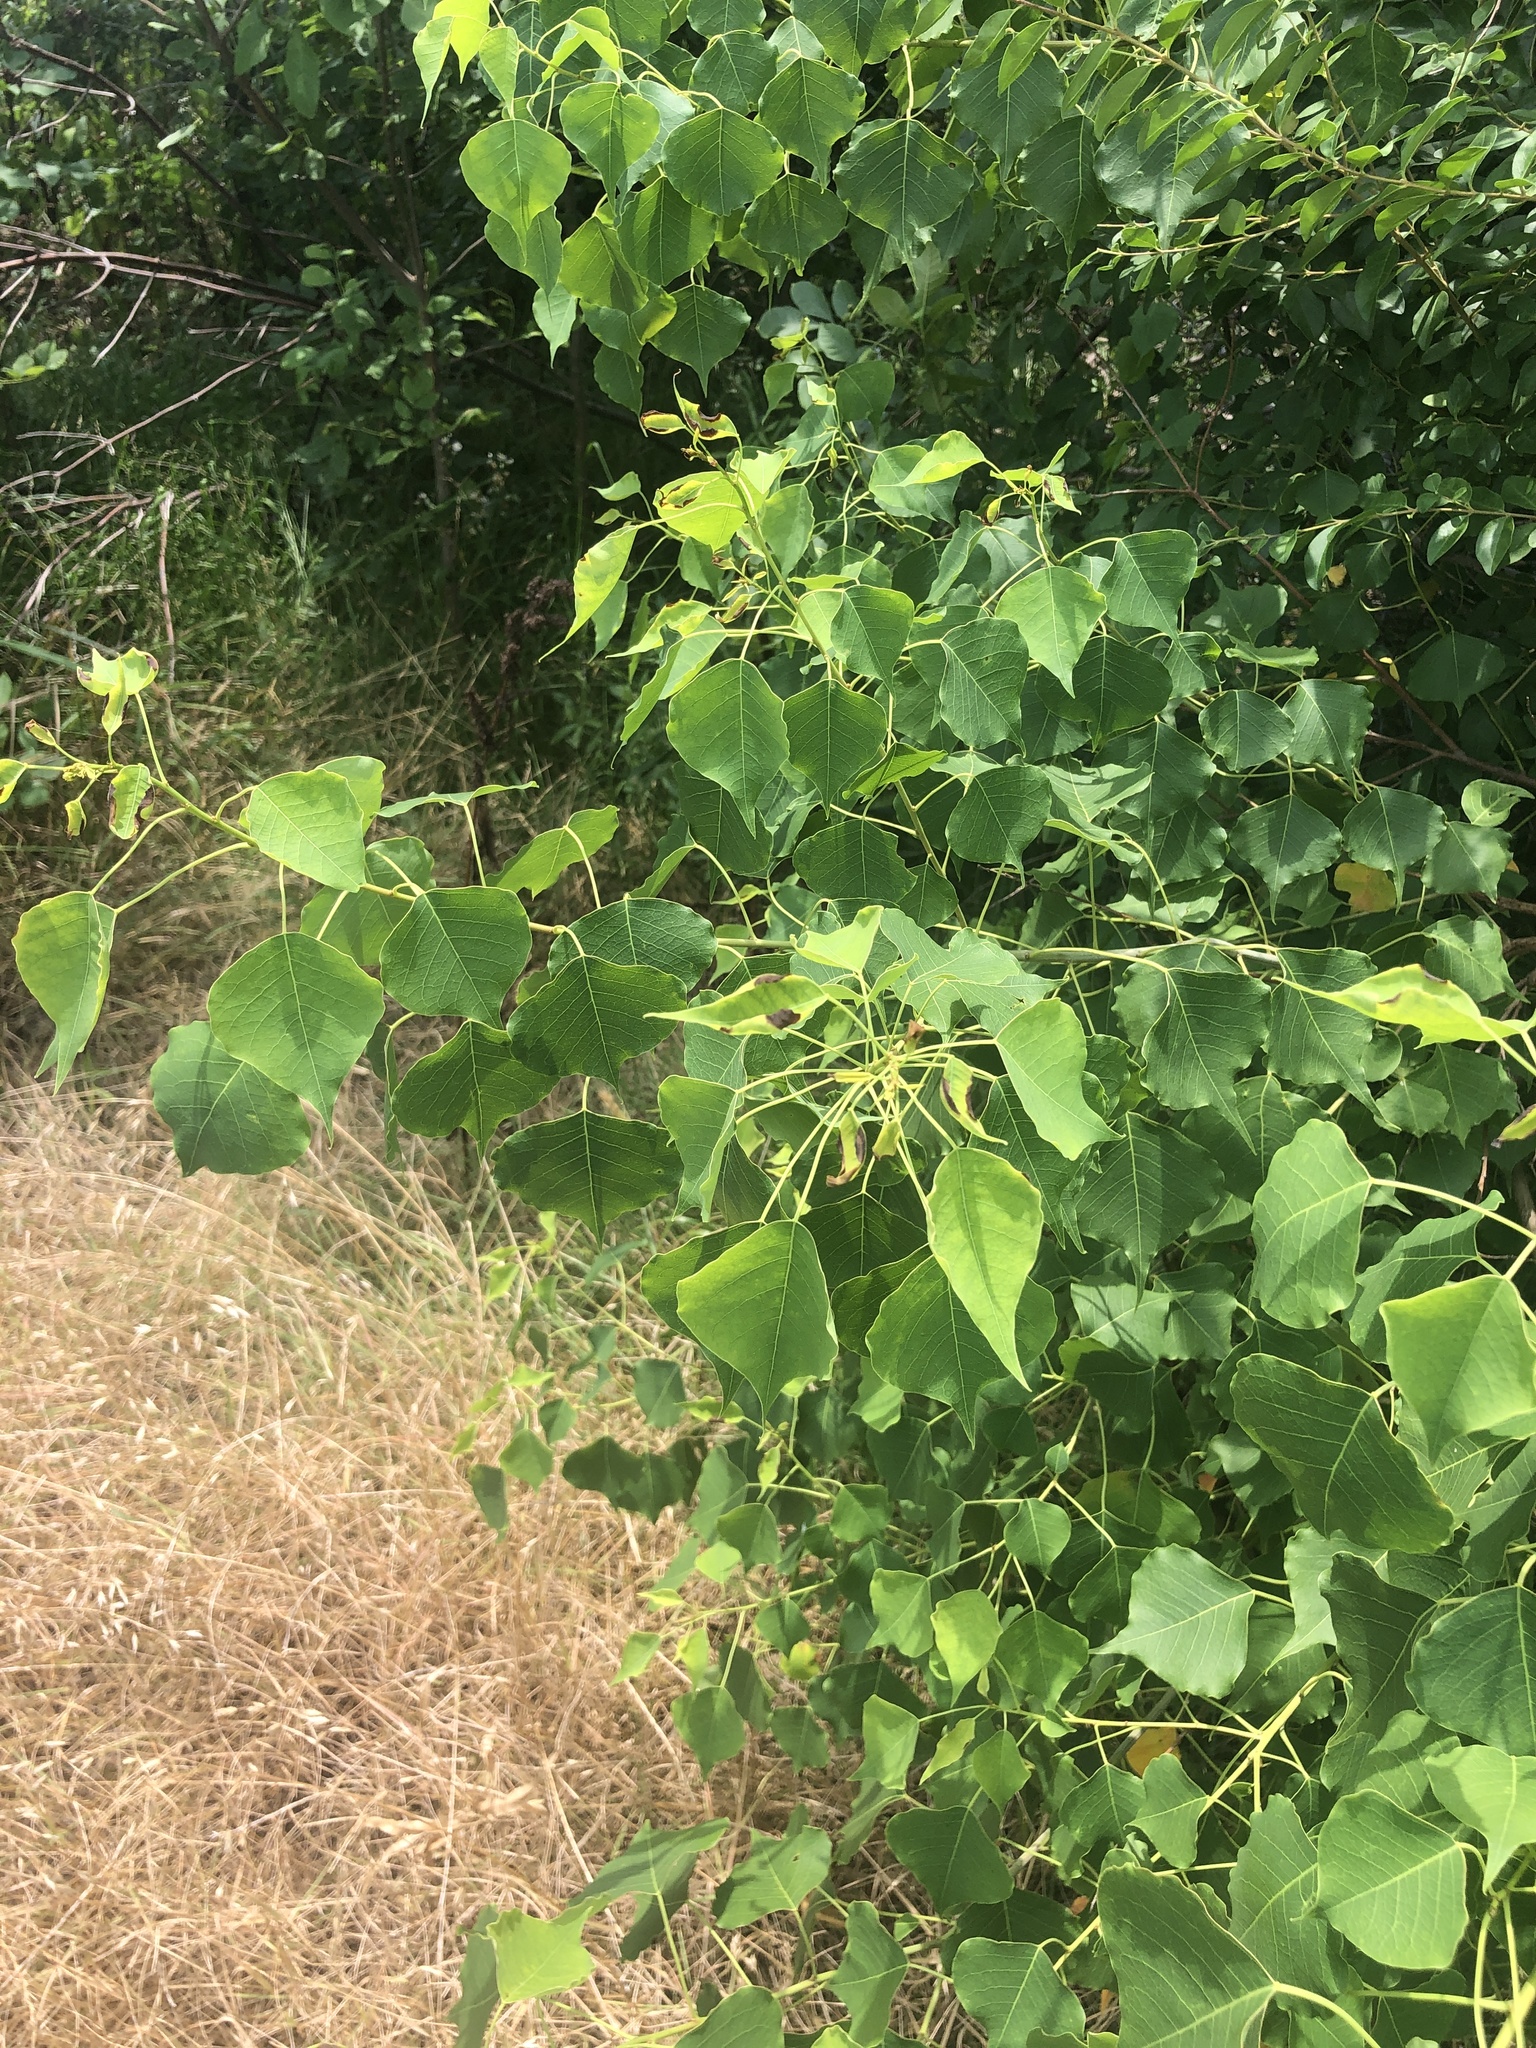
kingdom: Plantae
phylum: Tracheophyta
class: Magnoliopsida
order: Malpighiales
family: Euphorbiaceae
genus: Triadica
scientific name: Triadica sebifera
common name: Chinese tallow
